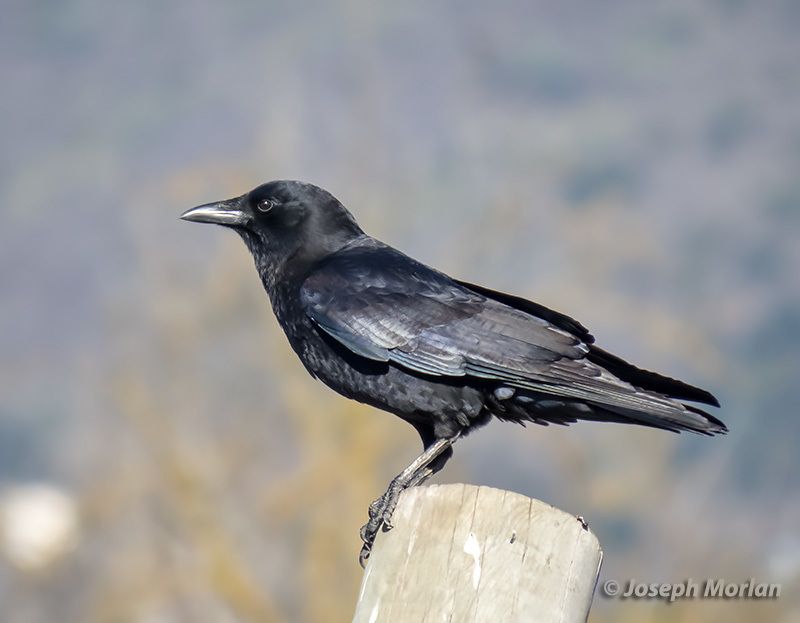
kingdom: Animalia
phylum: Chordata
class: Aves
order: Passeriformes
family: Corvidae
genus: Corvus
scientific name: Corvus brachyrhynchos
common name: American crow
